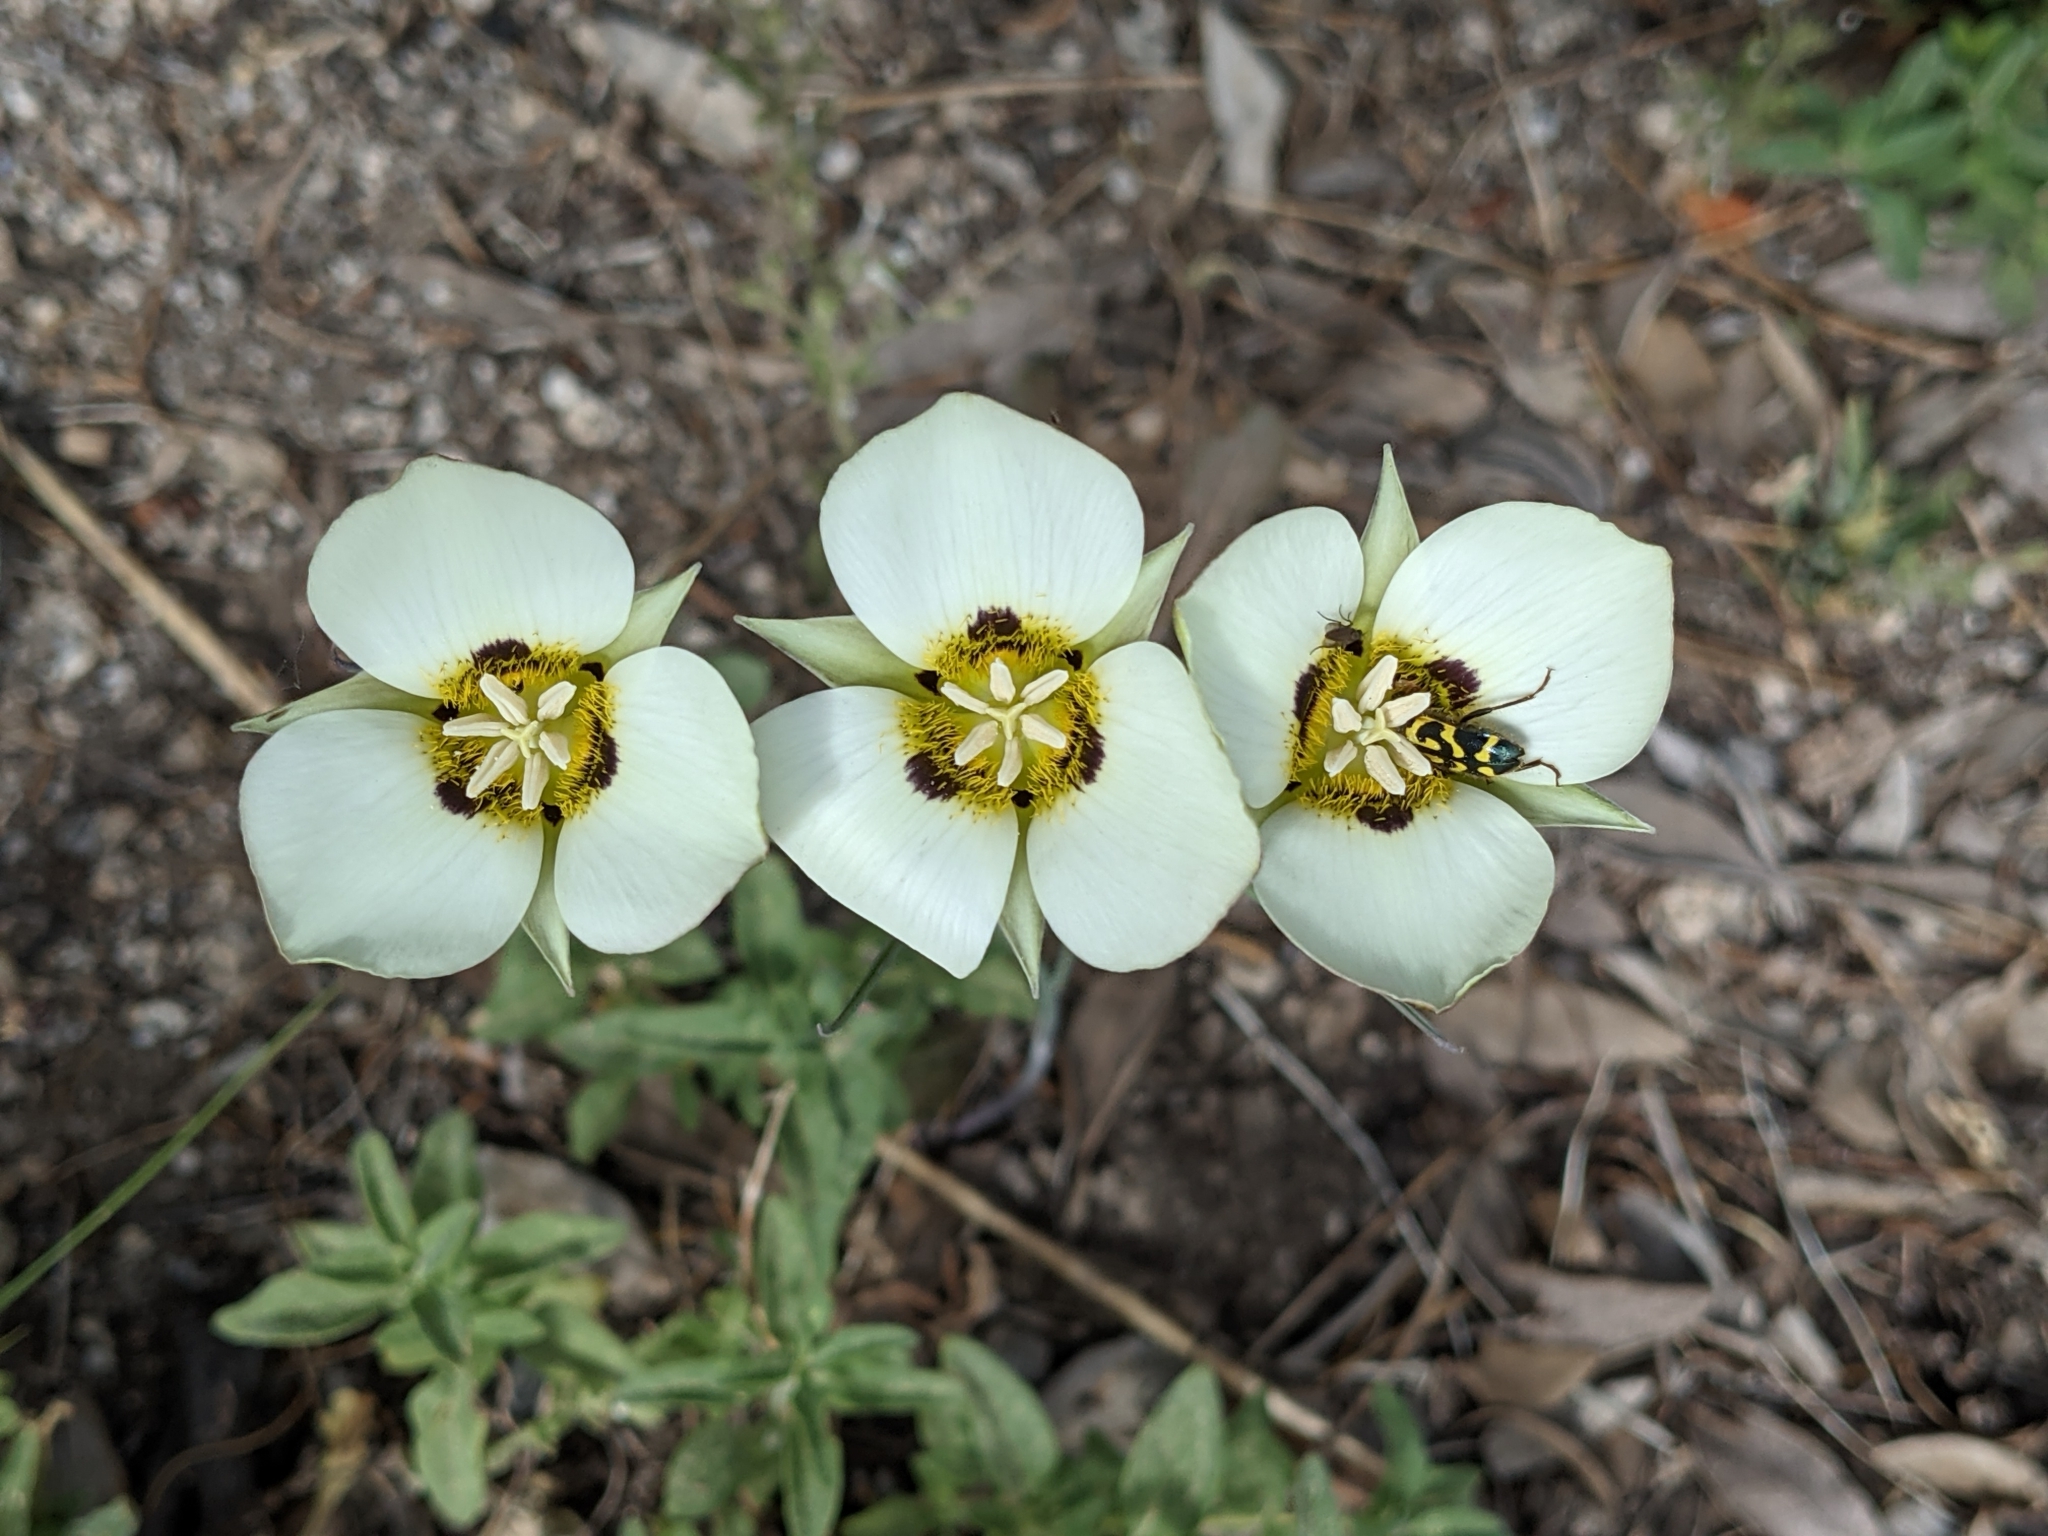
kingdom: Plantae
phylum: Tracheophyta
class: Liliopsida
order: Liliales
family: Liliaceae
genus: Calochortus
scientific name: Calochortus leichtlinii
